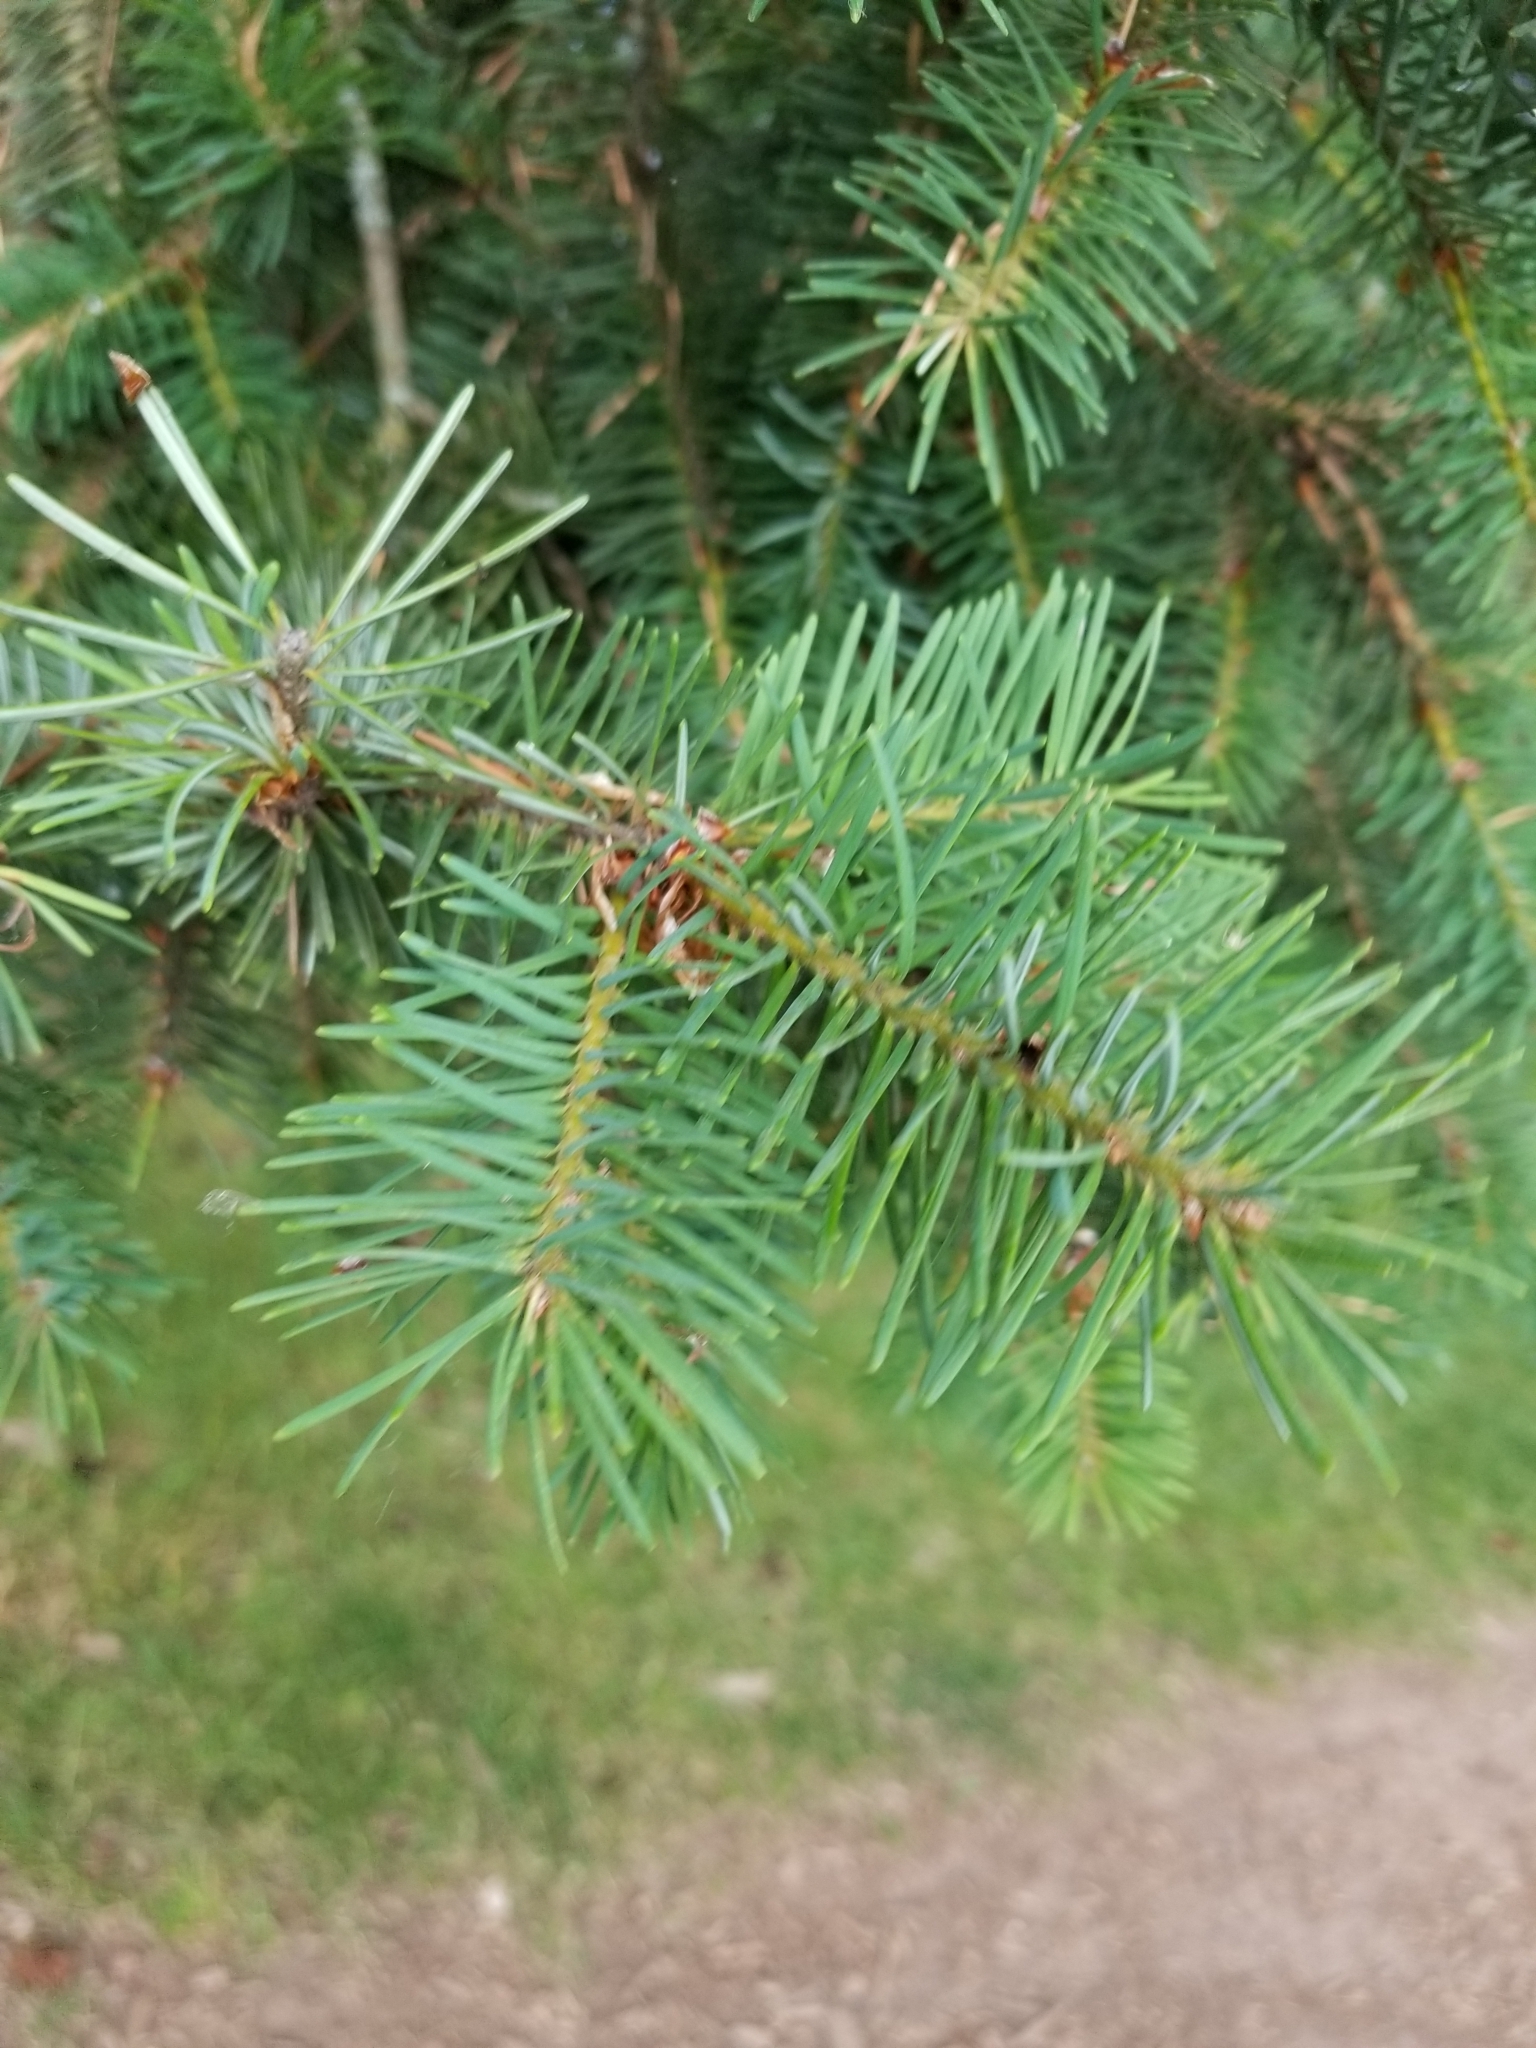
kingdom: Plantae
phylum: Tracheophyta
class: Pinopsida
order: Pinales
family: Pinaceae
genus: Pseudotsuga
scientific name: Pseudotsuga menziesii
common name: Douglas fir
